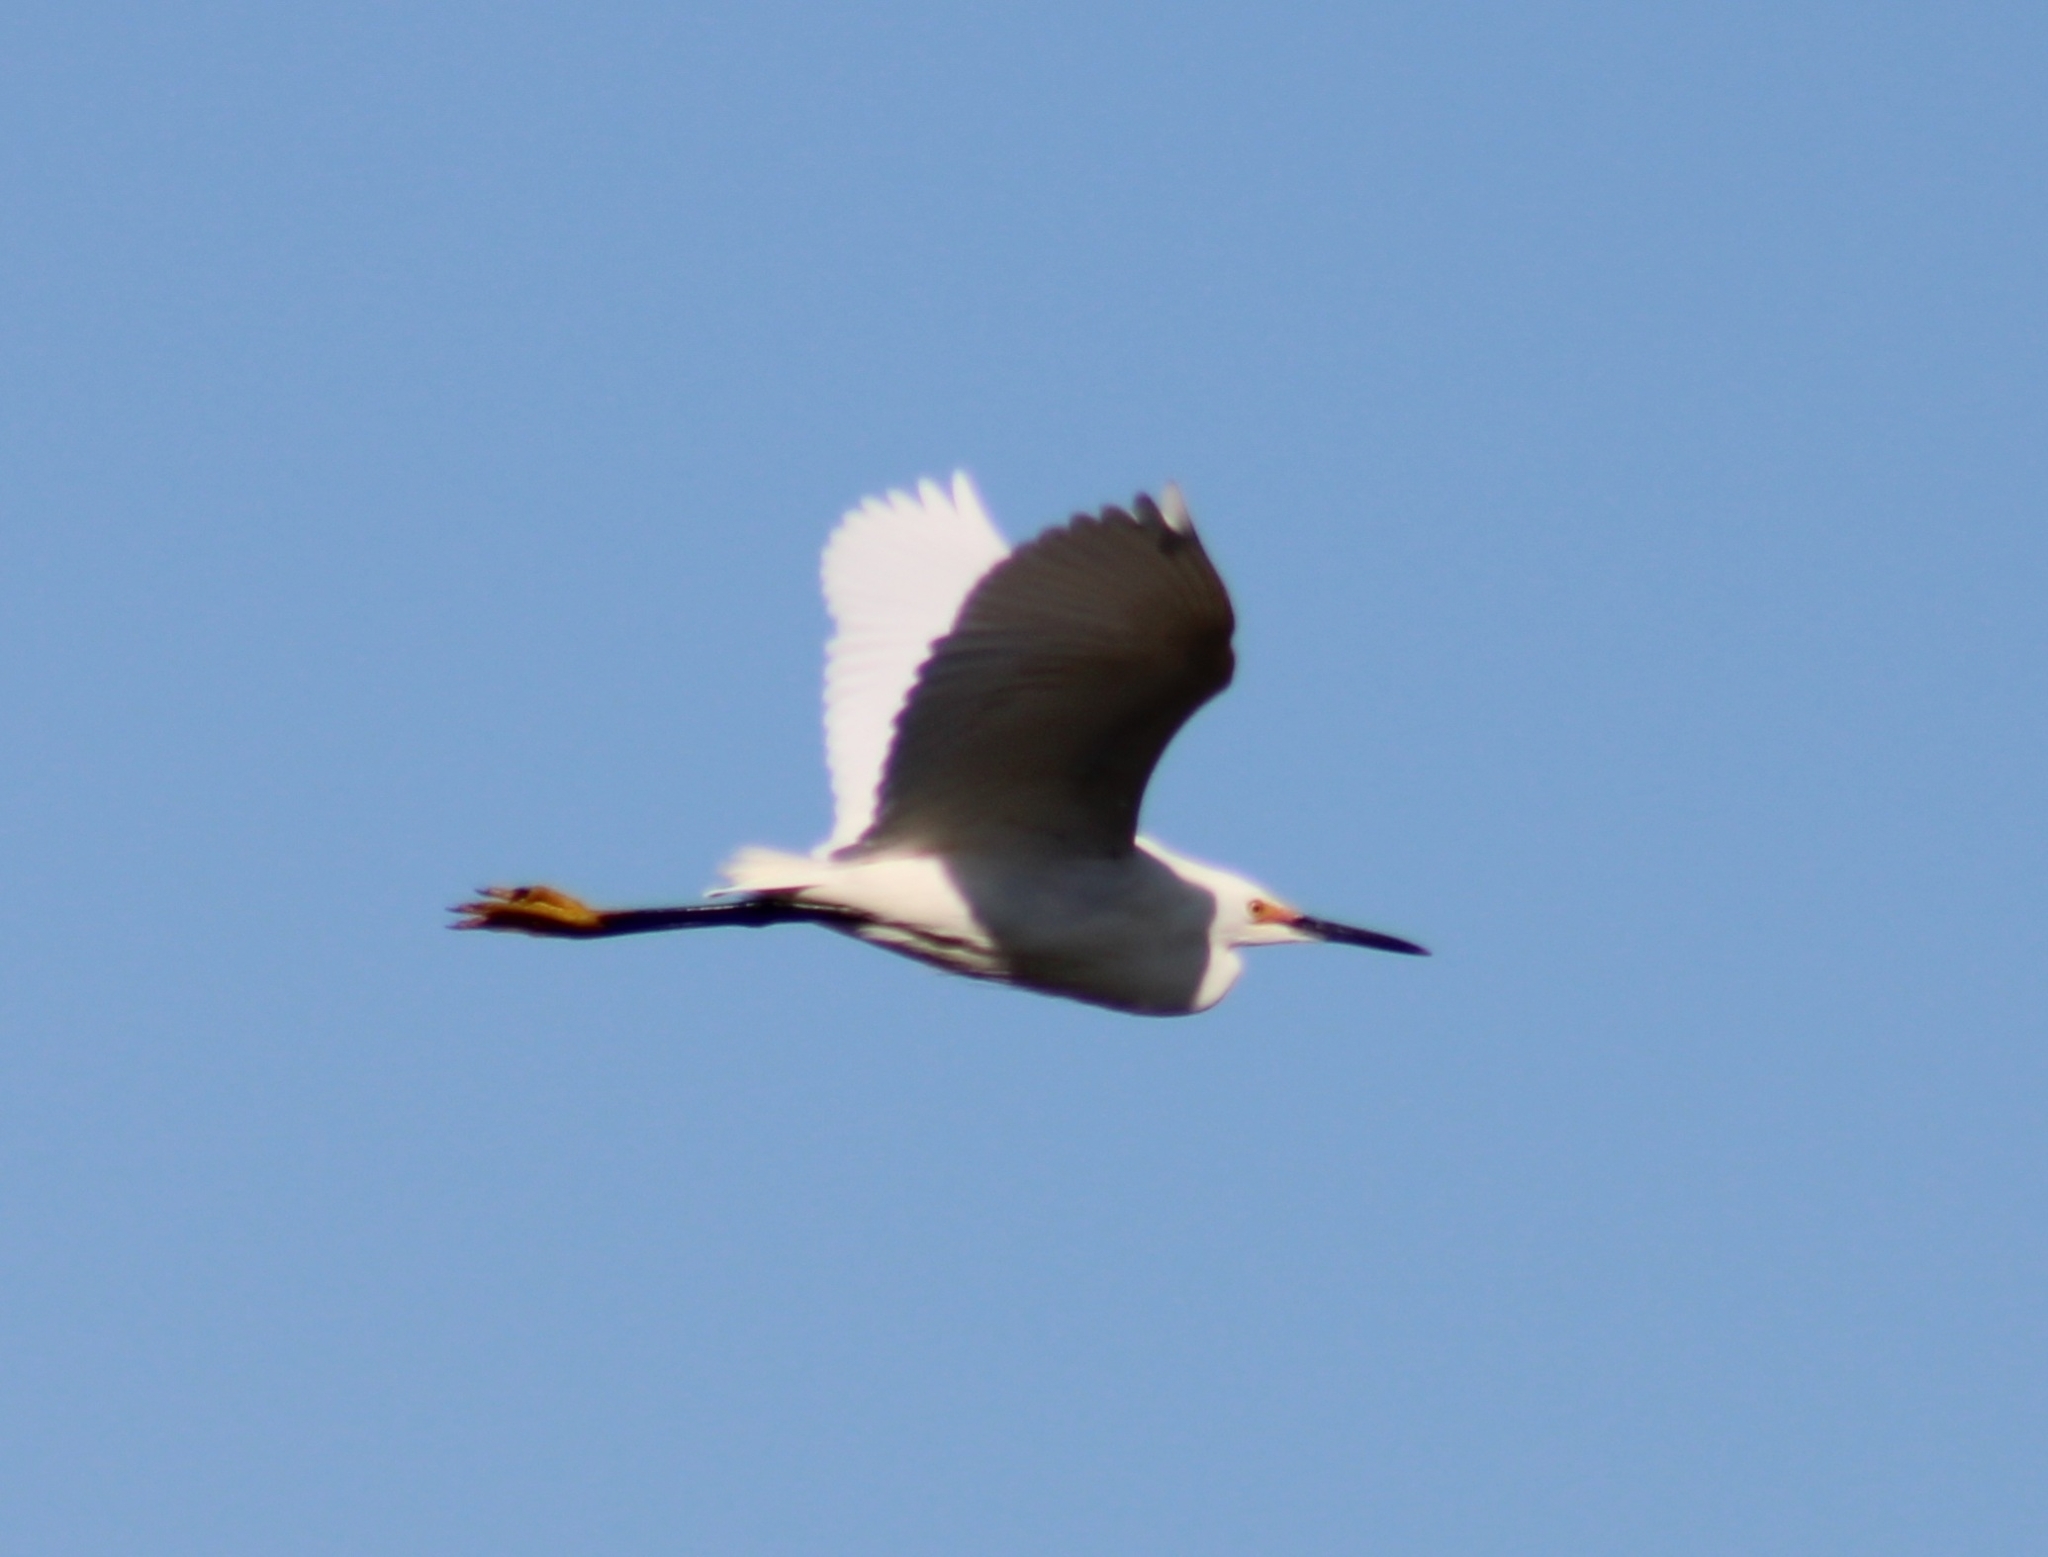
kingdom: Animalia
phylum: Chordata
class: Aves
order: Pelecaniformes
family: Ardeidae
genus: Egretta
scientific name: Egretta thula
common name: Snowy egret
